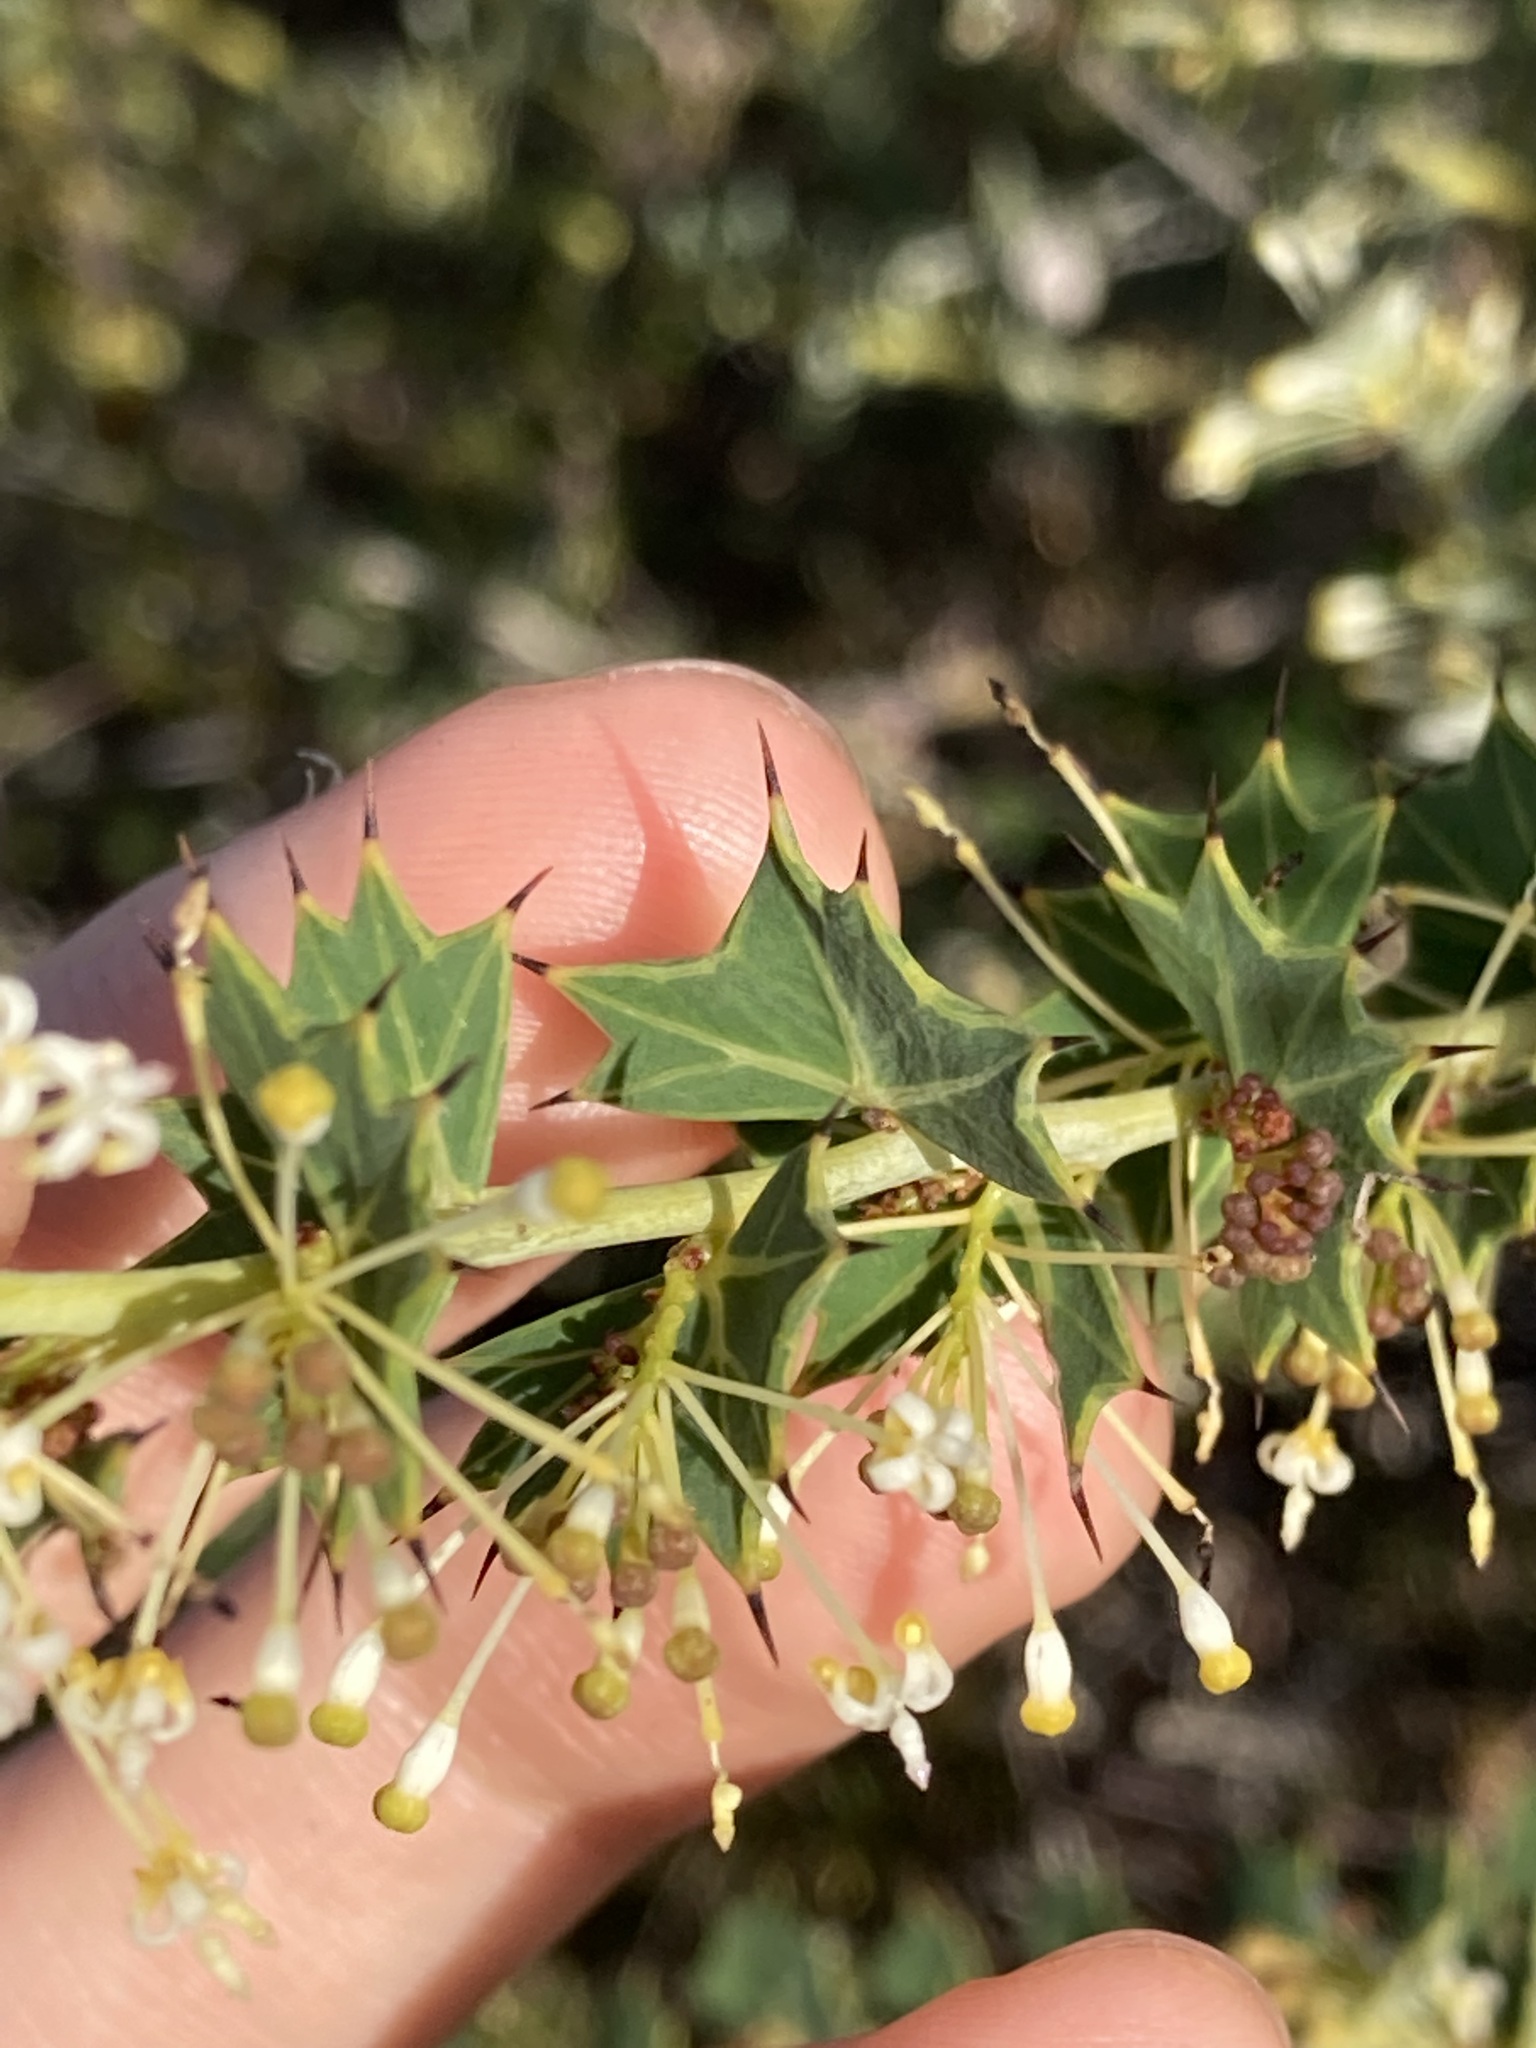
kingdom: Plantae
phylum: Tracheophyta
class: Magnoliopsida
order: Proteales
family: Proteaceae
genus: Grevillea
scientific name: Grevillea uniformis
